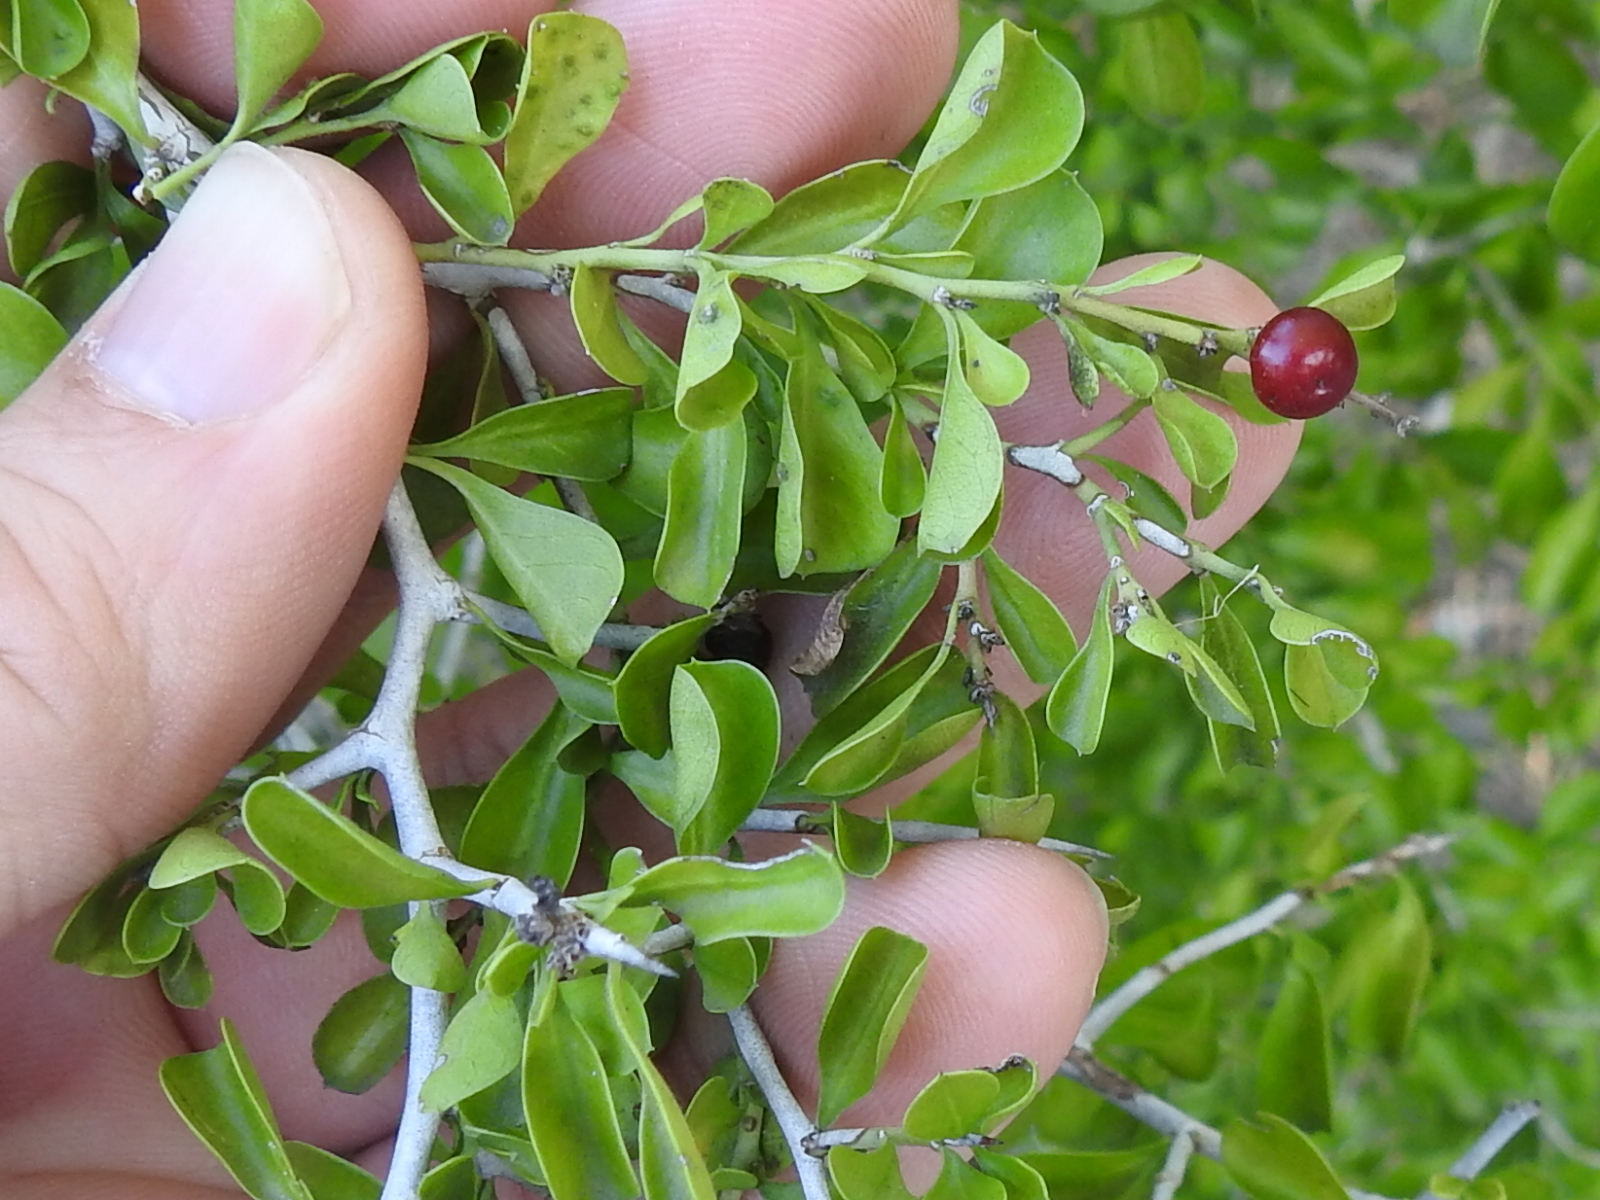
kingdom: Plantae
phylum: Tracheophyta
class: Magnoliopsida
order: Rosales
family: Rhamnaceae
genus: Condalia
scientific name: Condalia hookeri
